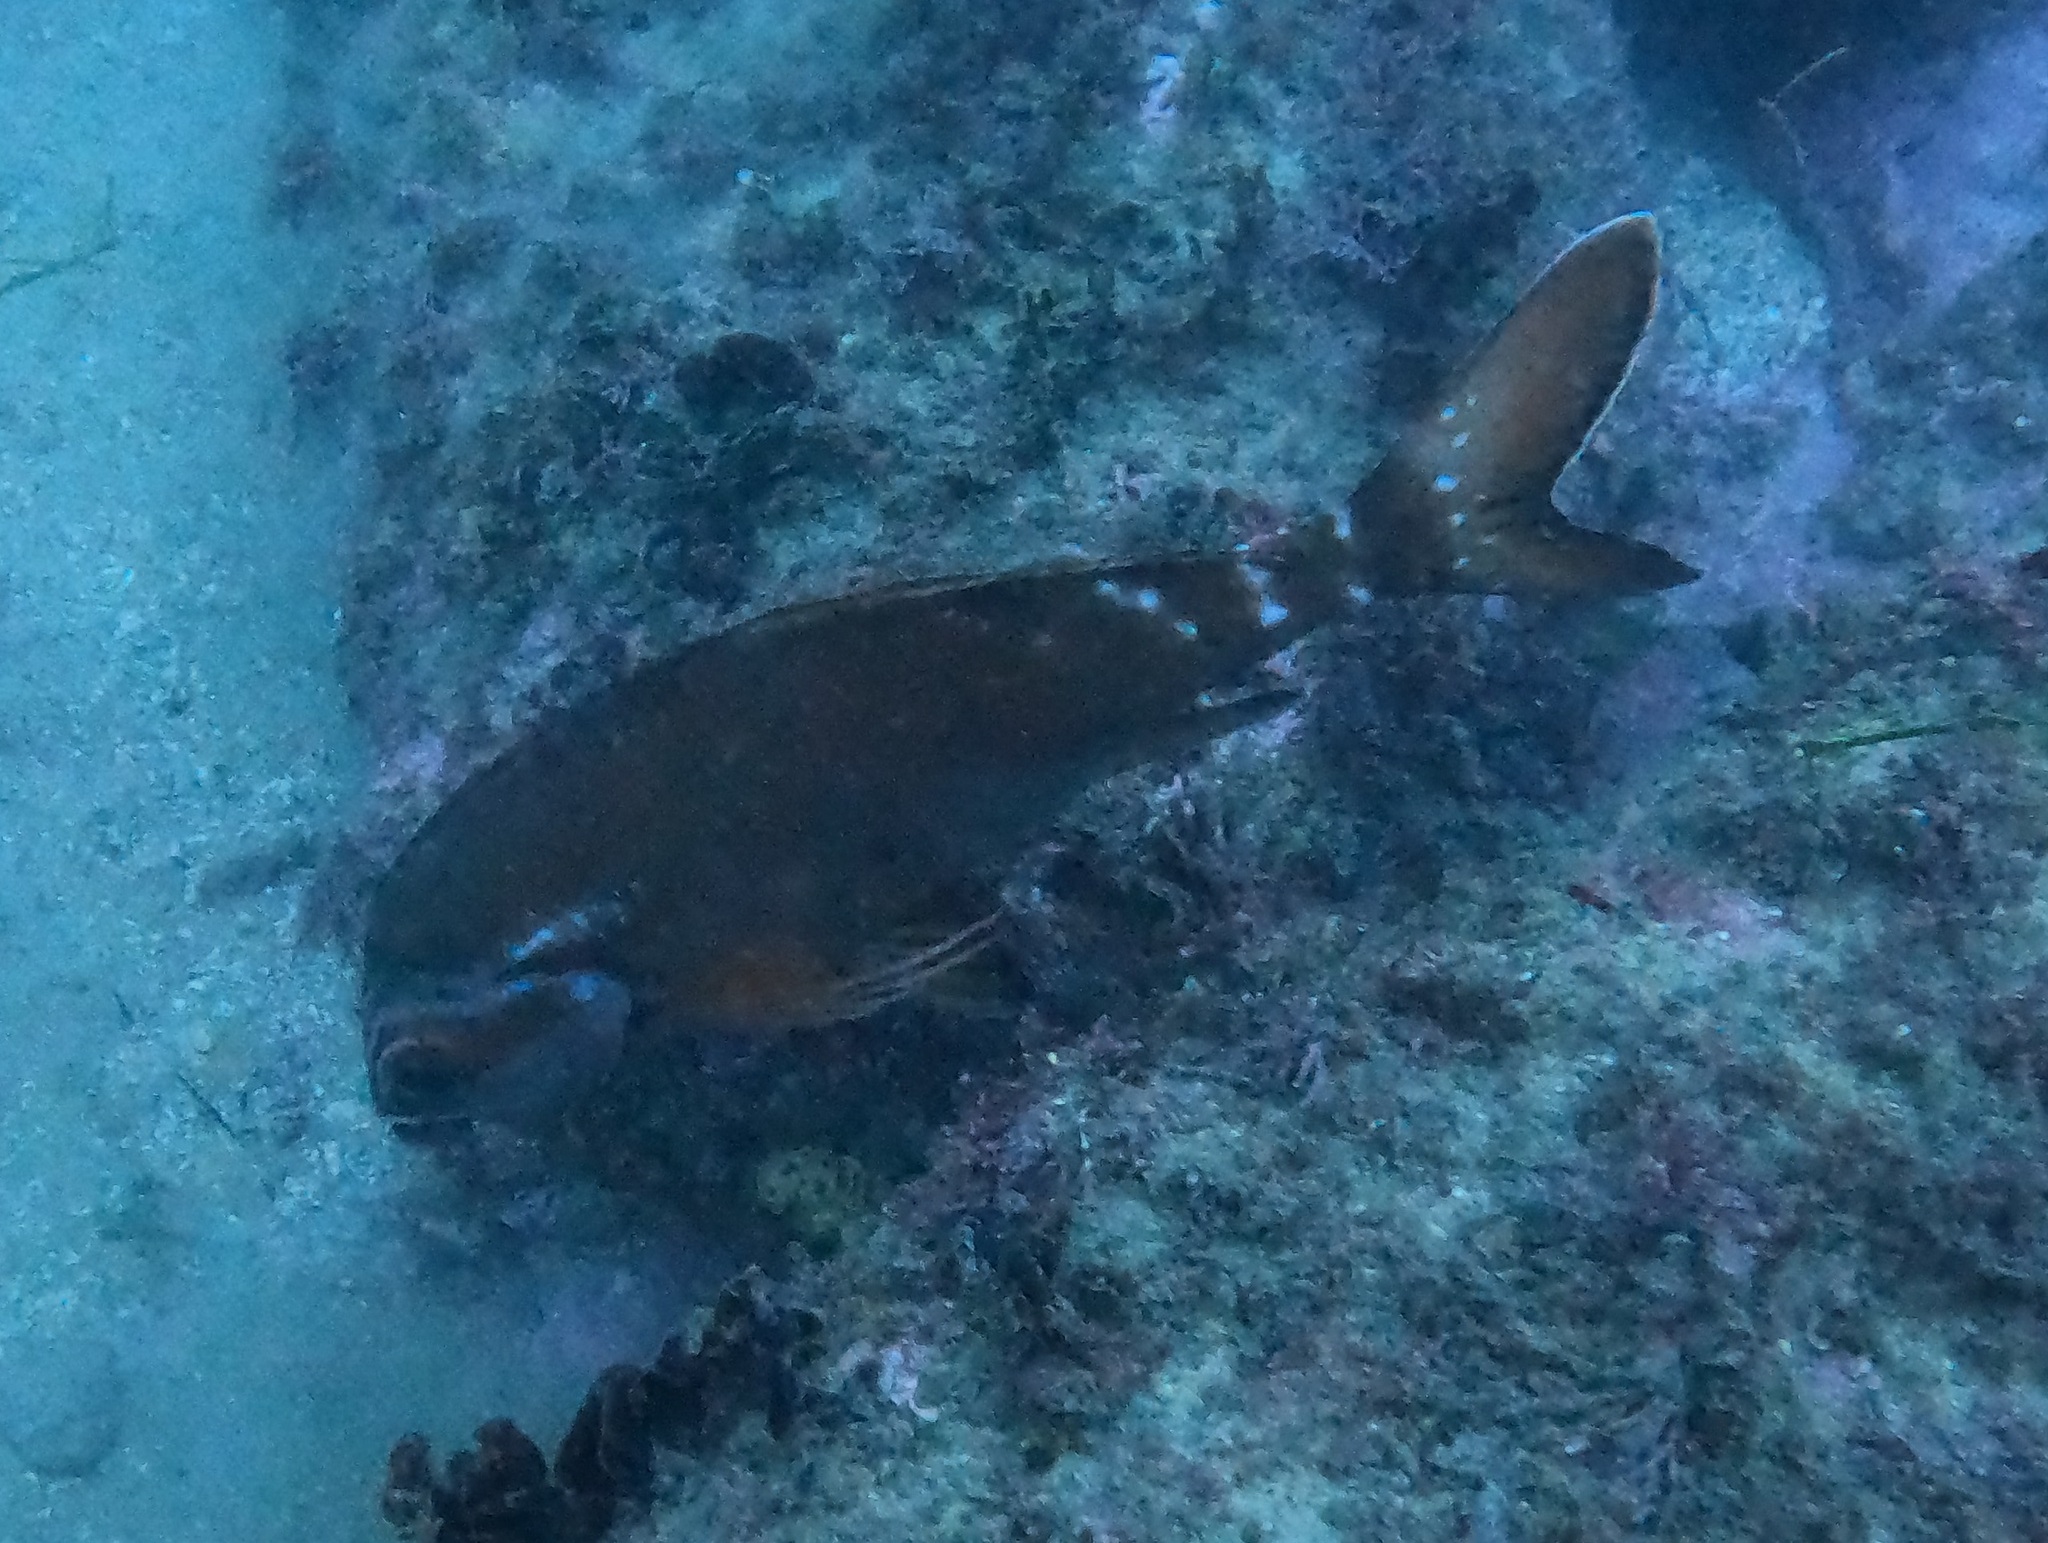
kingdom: Animalia
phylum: Chordata
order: Perciformes
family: Latridae
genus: Morwong
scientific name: Morwong fuscus
